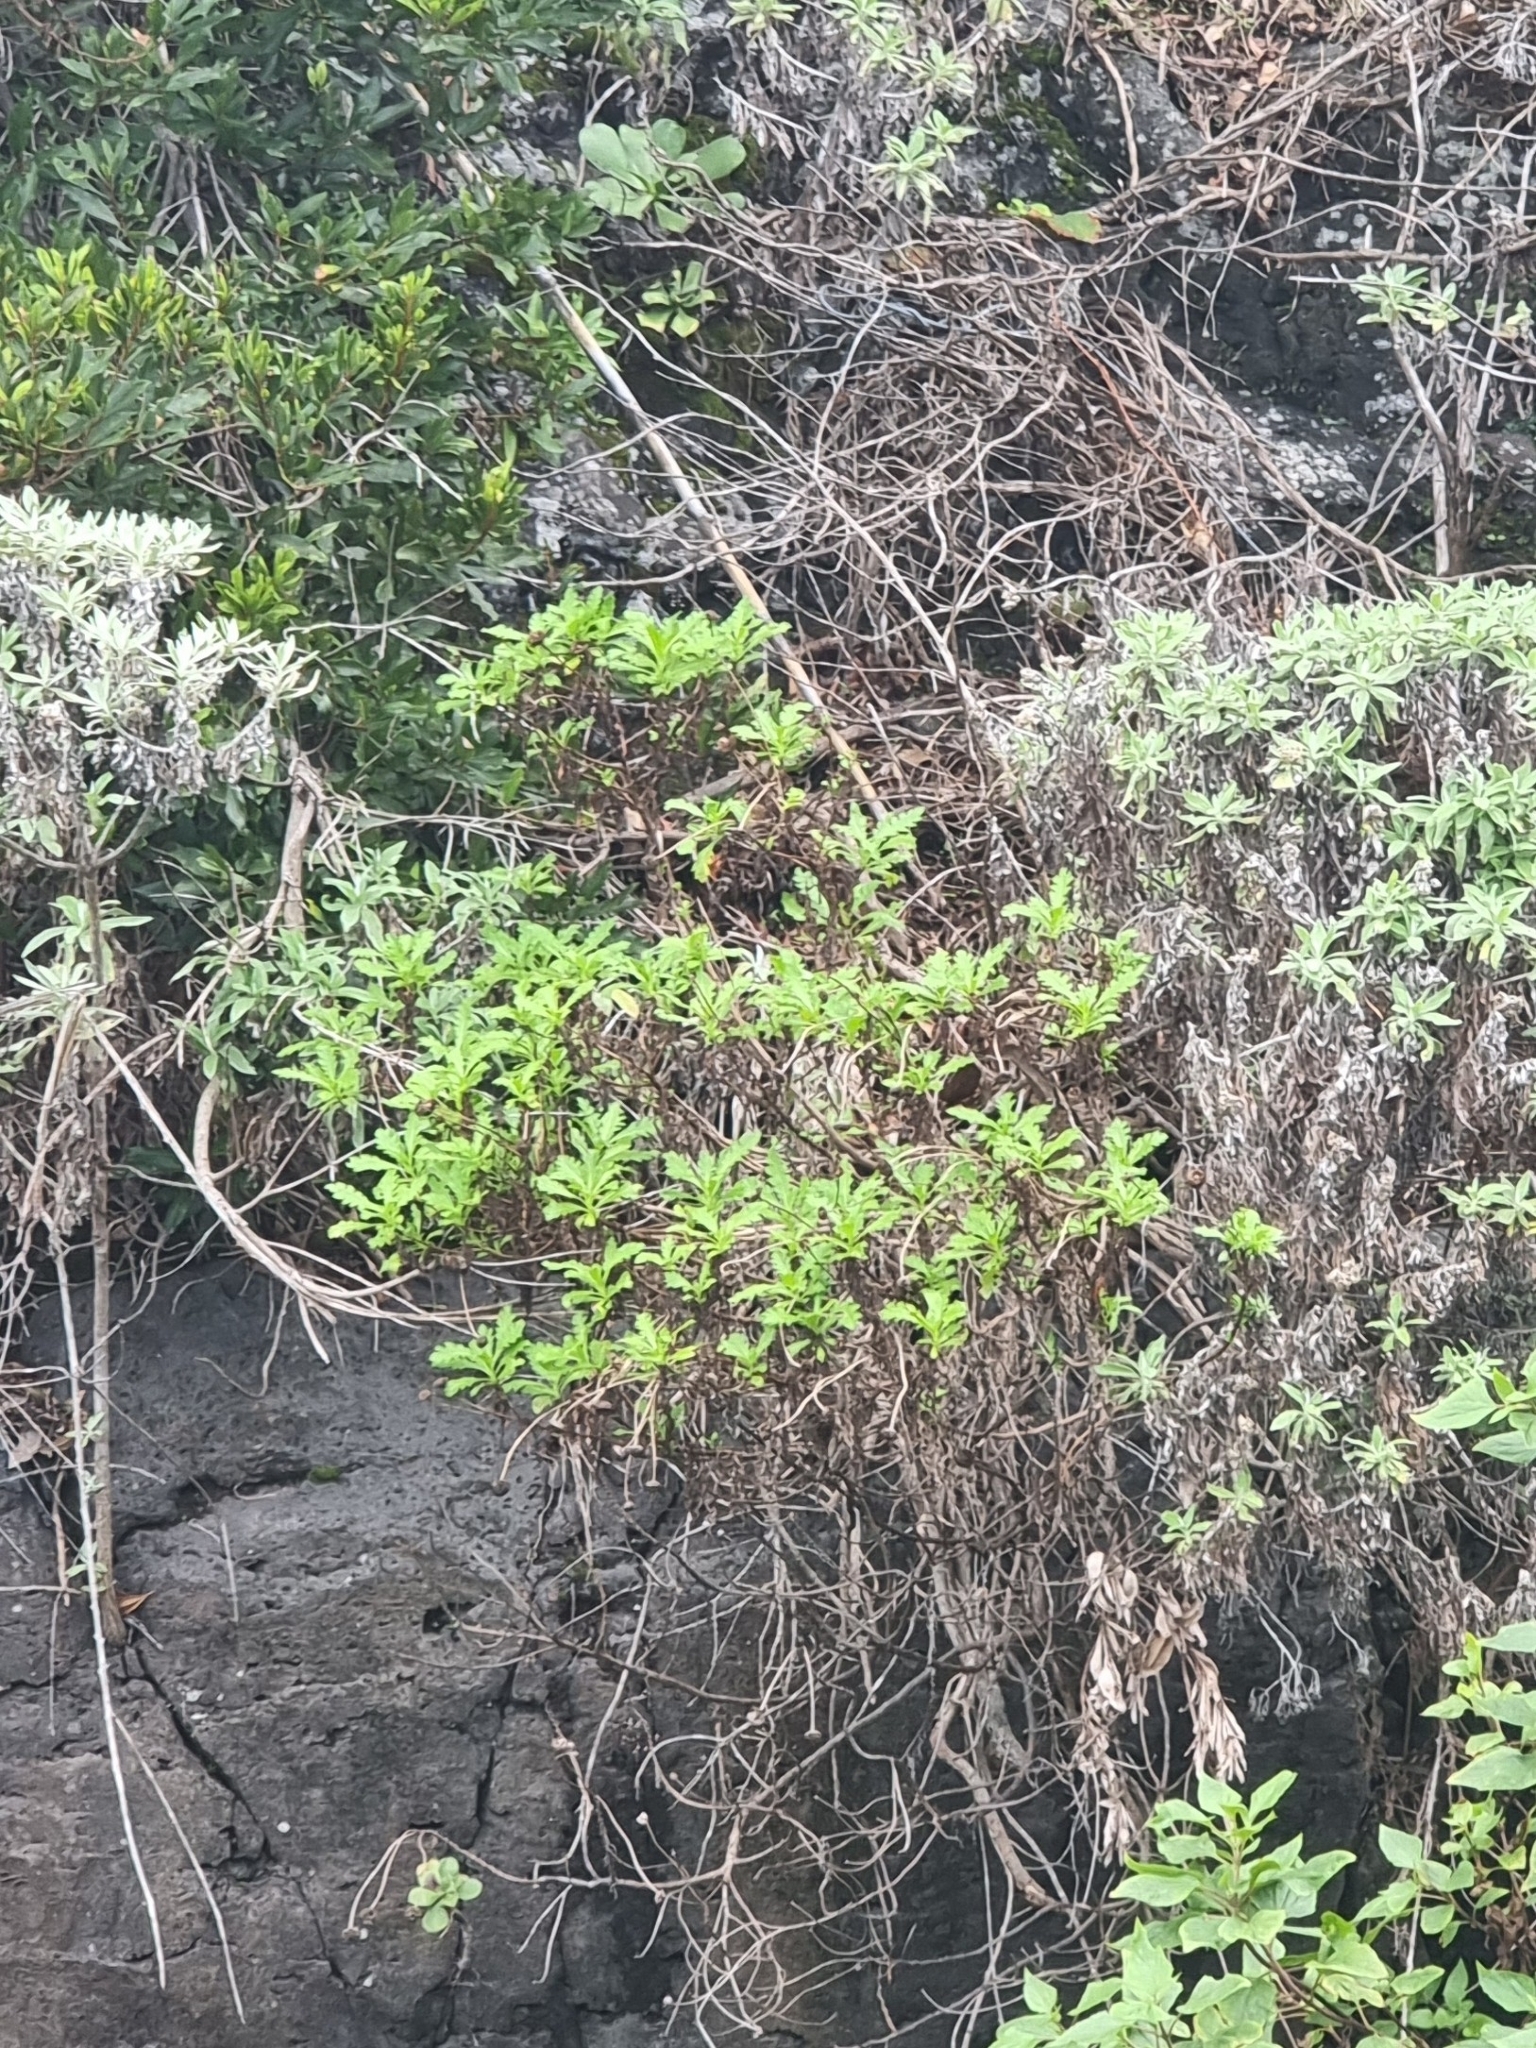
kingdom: Plantae
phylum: Tracheophyta
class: Magnoliopsida
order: Asterales
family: Asteraceae
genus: Argyranthemum
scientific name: Argyranthemum pinnatifidum
